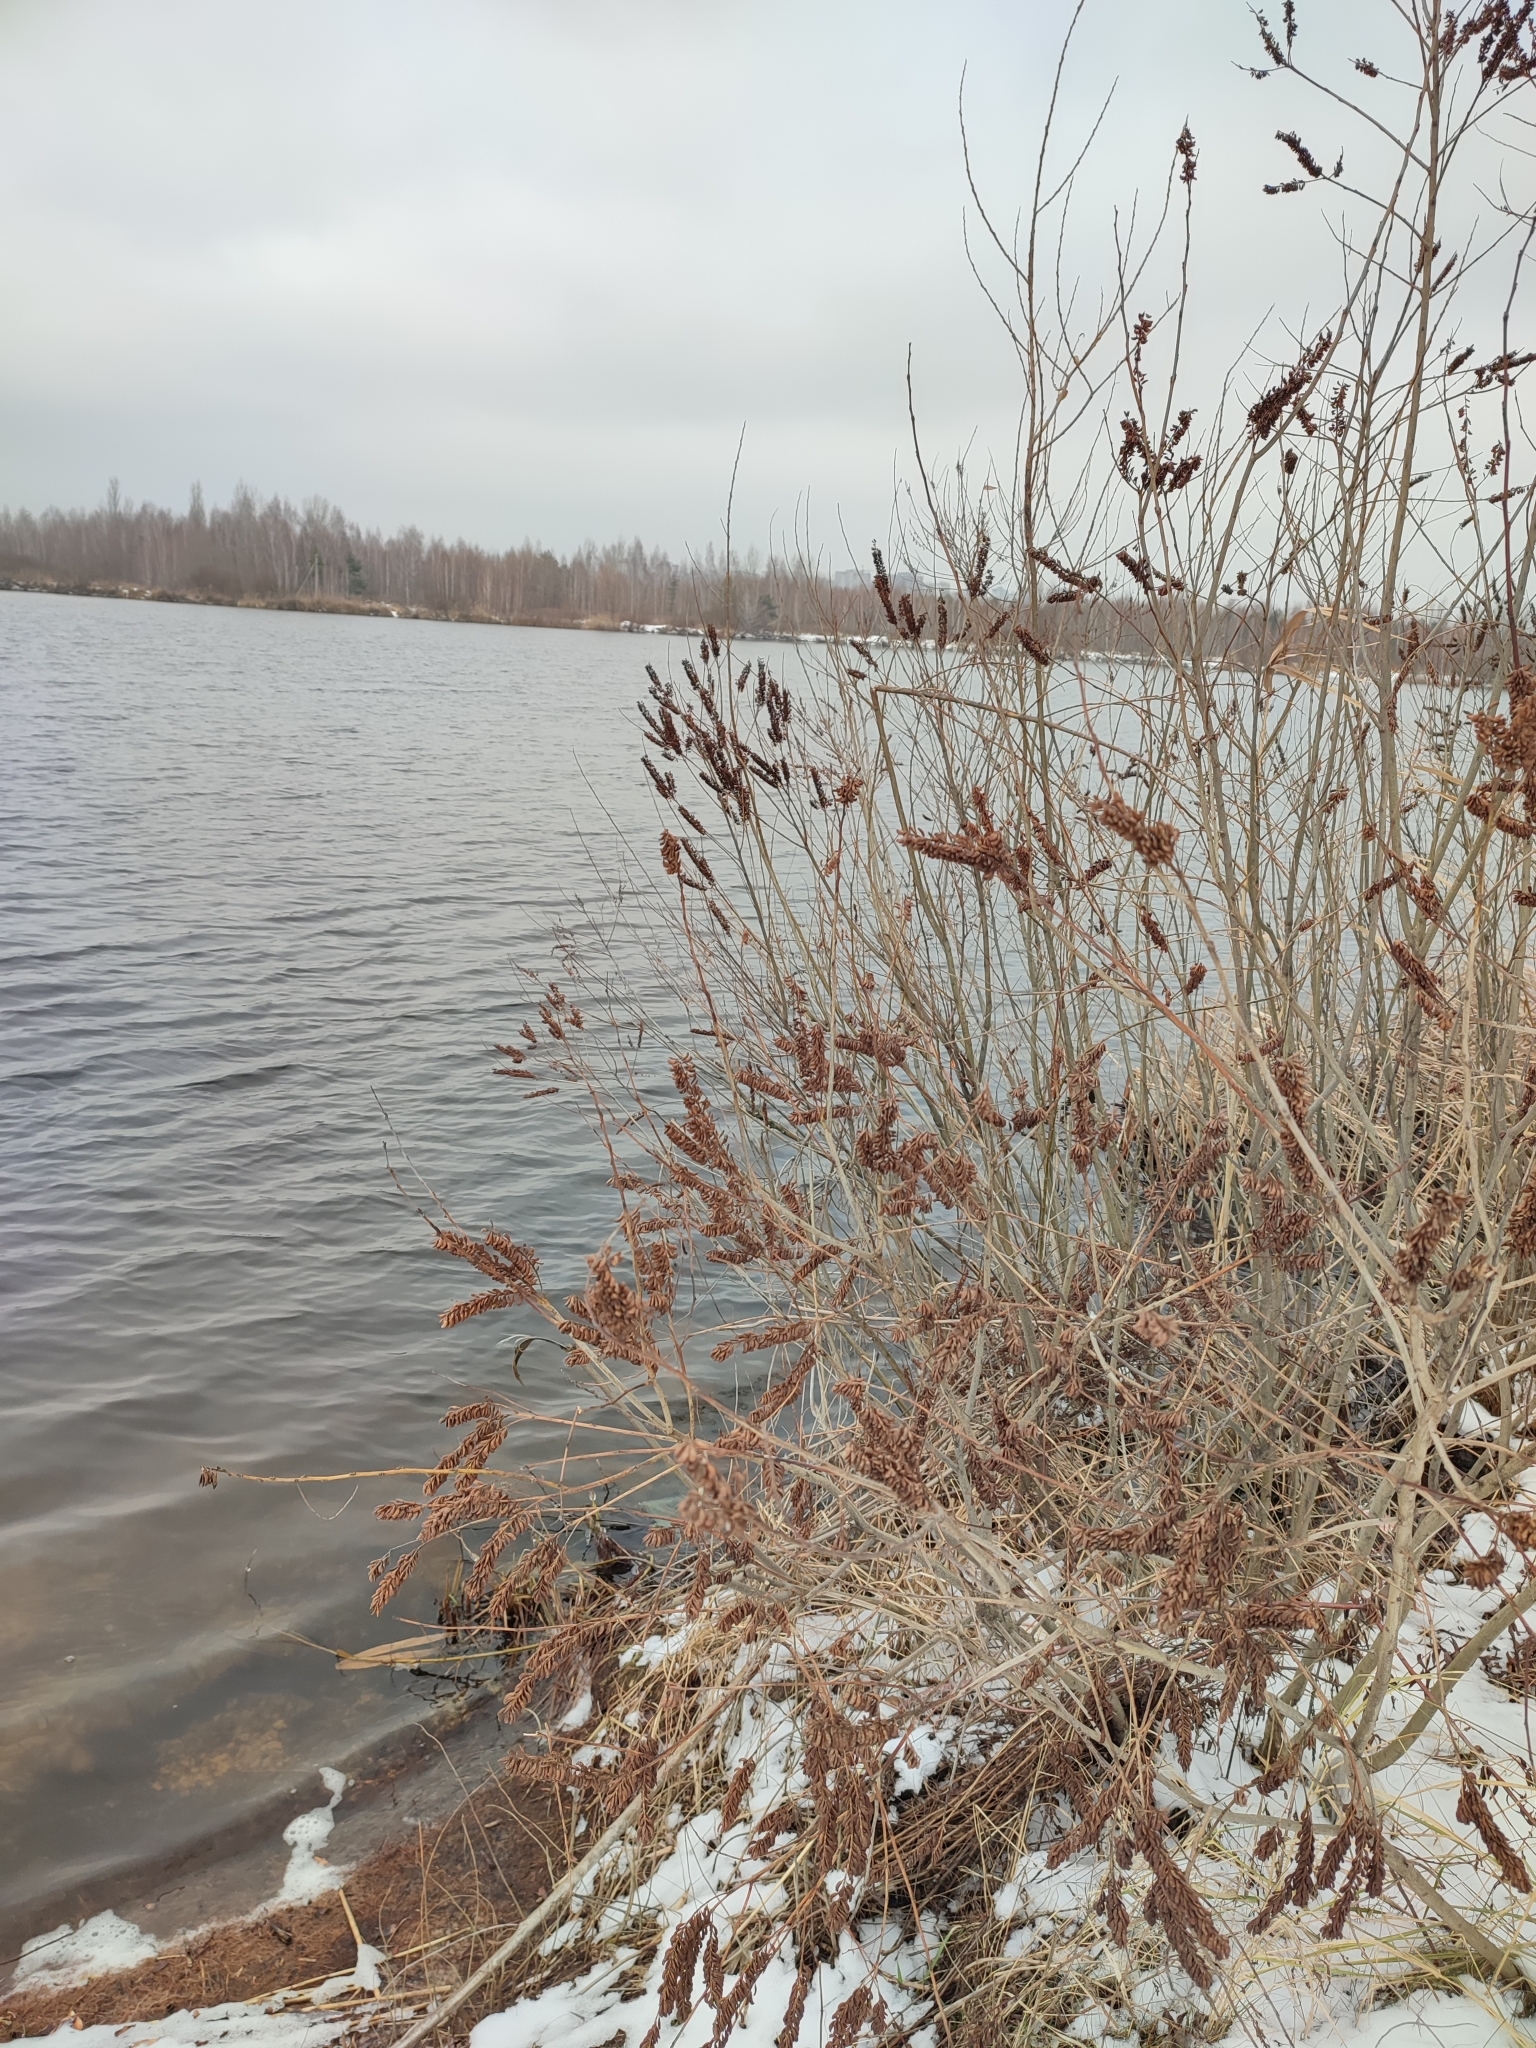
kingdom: Plantae
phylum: Tracheophyta
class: Magnoliopsida
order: Fabales
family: Fabaceae
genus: Amorpha
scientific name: Amorpha fruticosa
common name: False indigo
